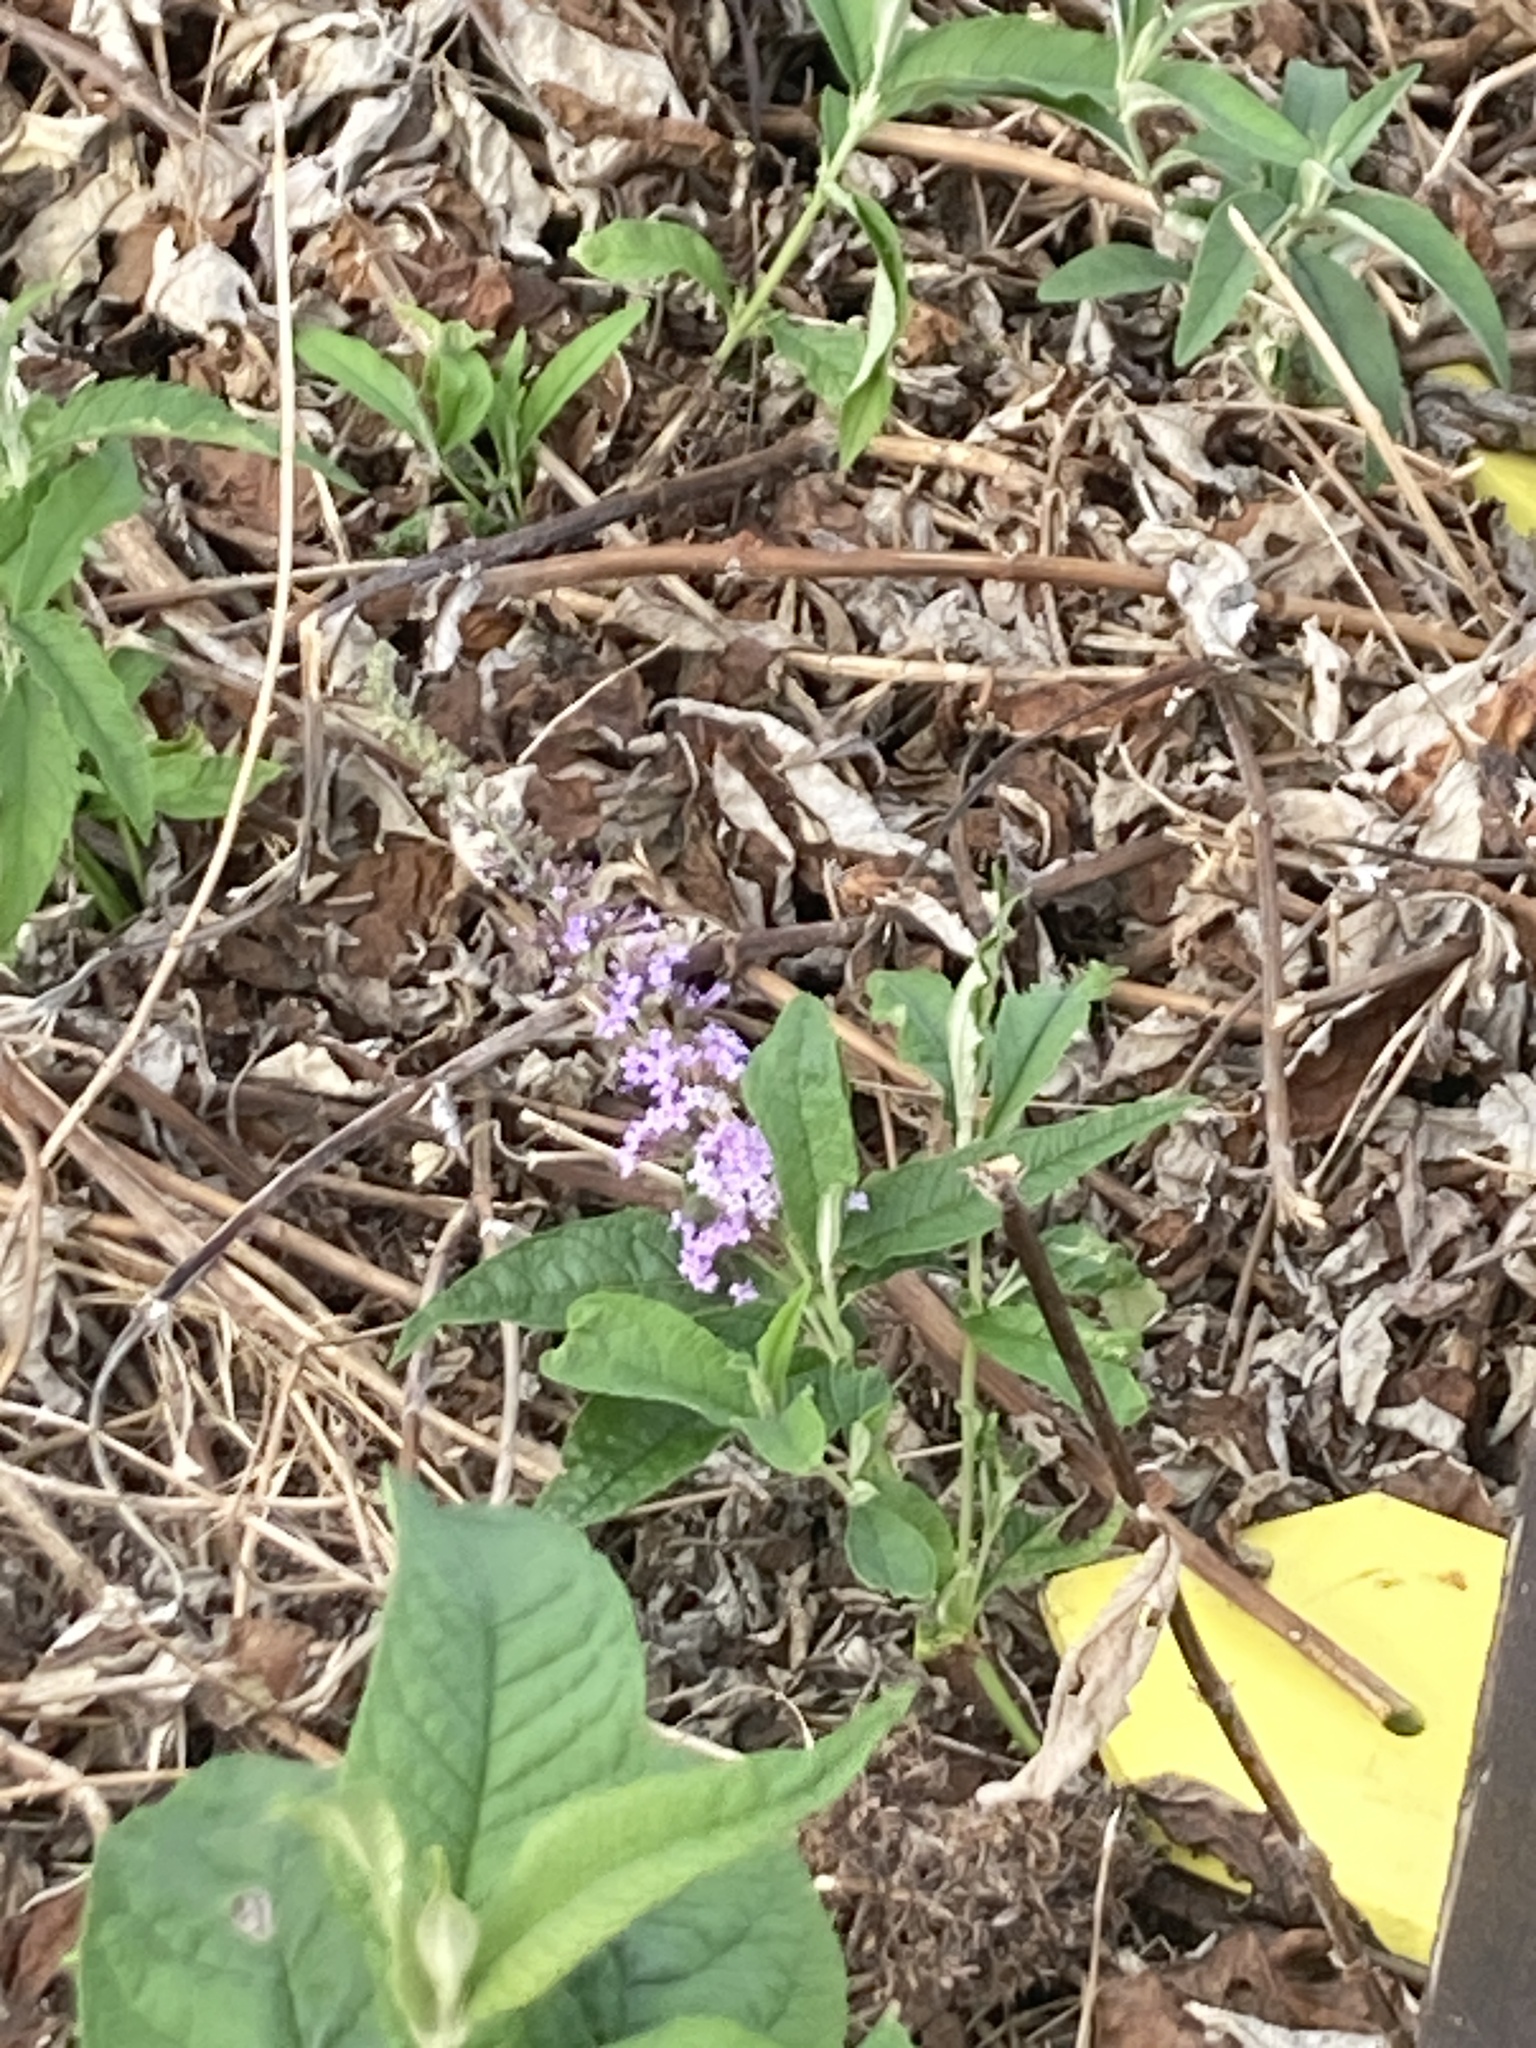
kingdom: Plantae
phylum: Tracheophyta
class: Magnoliopsida
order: Lamiales
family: Scrophulariaceae
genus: Buddleja
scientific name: Buddleja davidii
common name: Butterfly-bush
